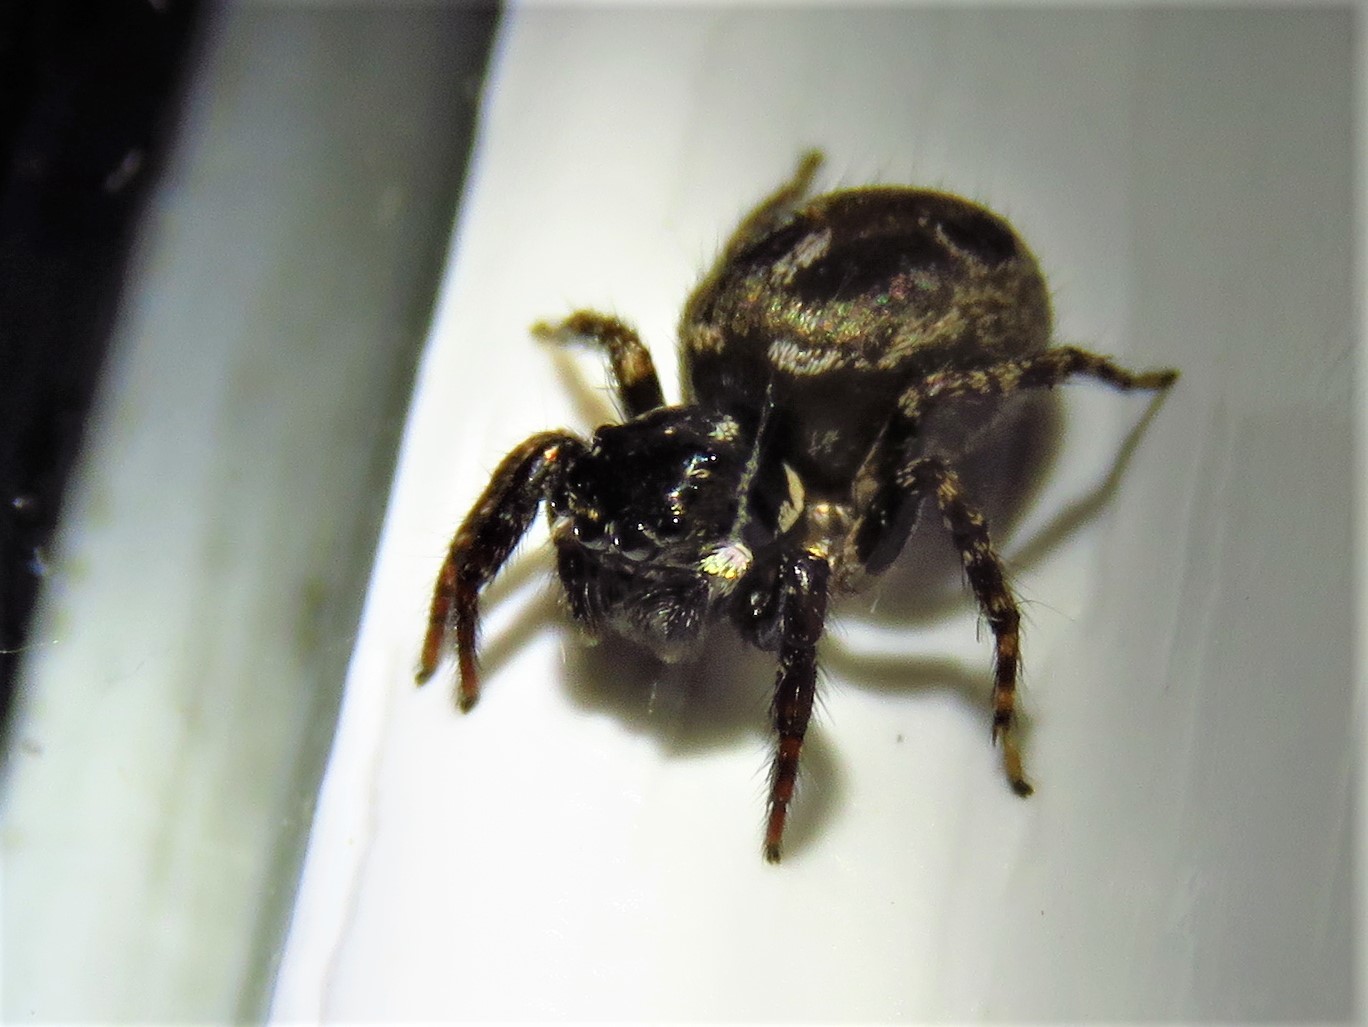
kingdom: Animalia
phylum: Arthropoda
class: Arachnida
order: Araneae
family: Salticidae
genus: Anasaitis
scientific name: Anasaitis canosa
